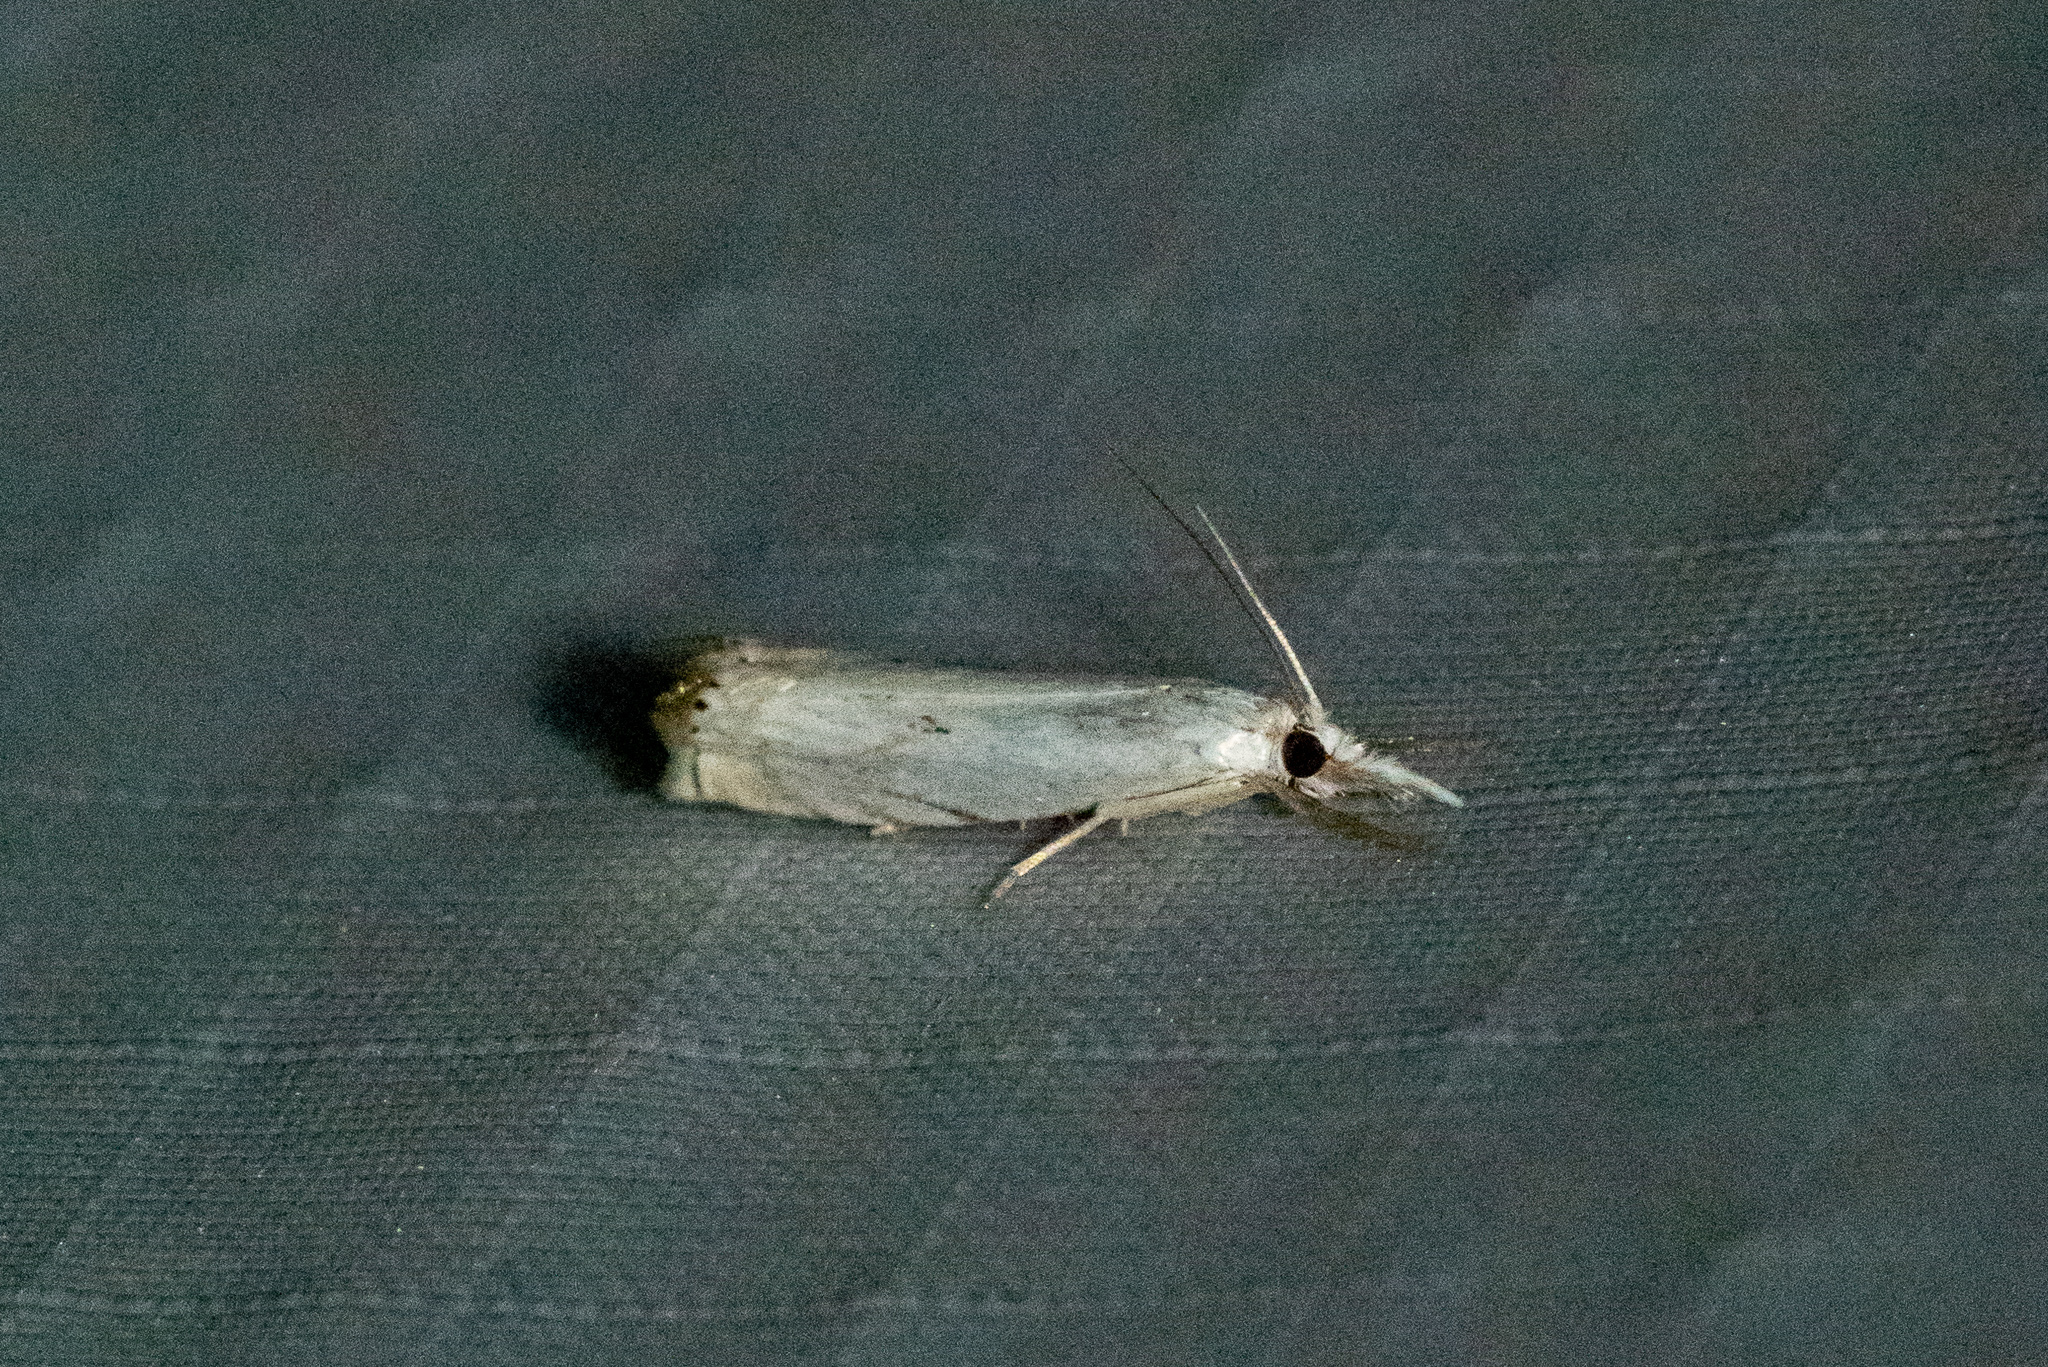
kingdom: Animalia
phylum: Arthropoda
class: Insecta
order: Lepidoptera
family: Crambidae
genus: Crambus
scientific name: Crambus albellus
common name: Small white grass-veneer
